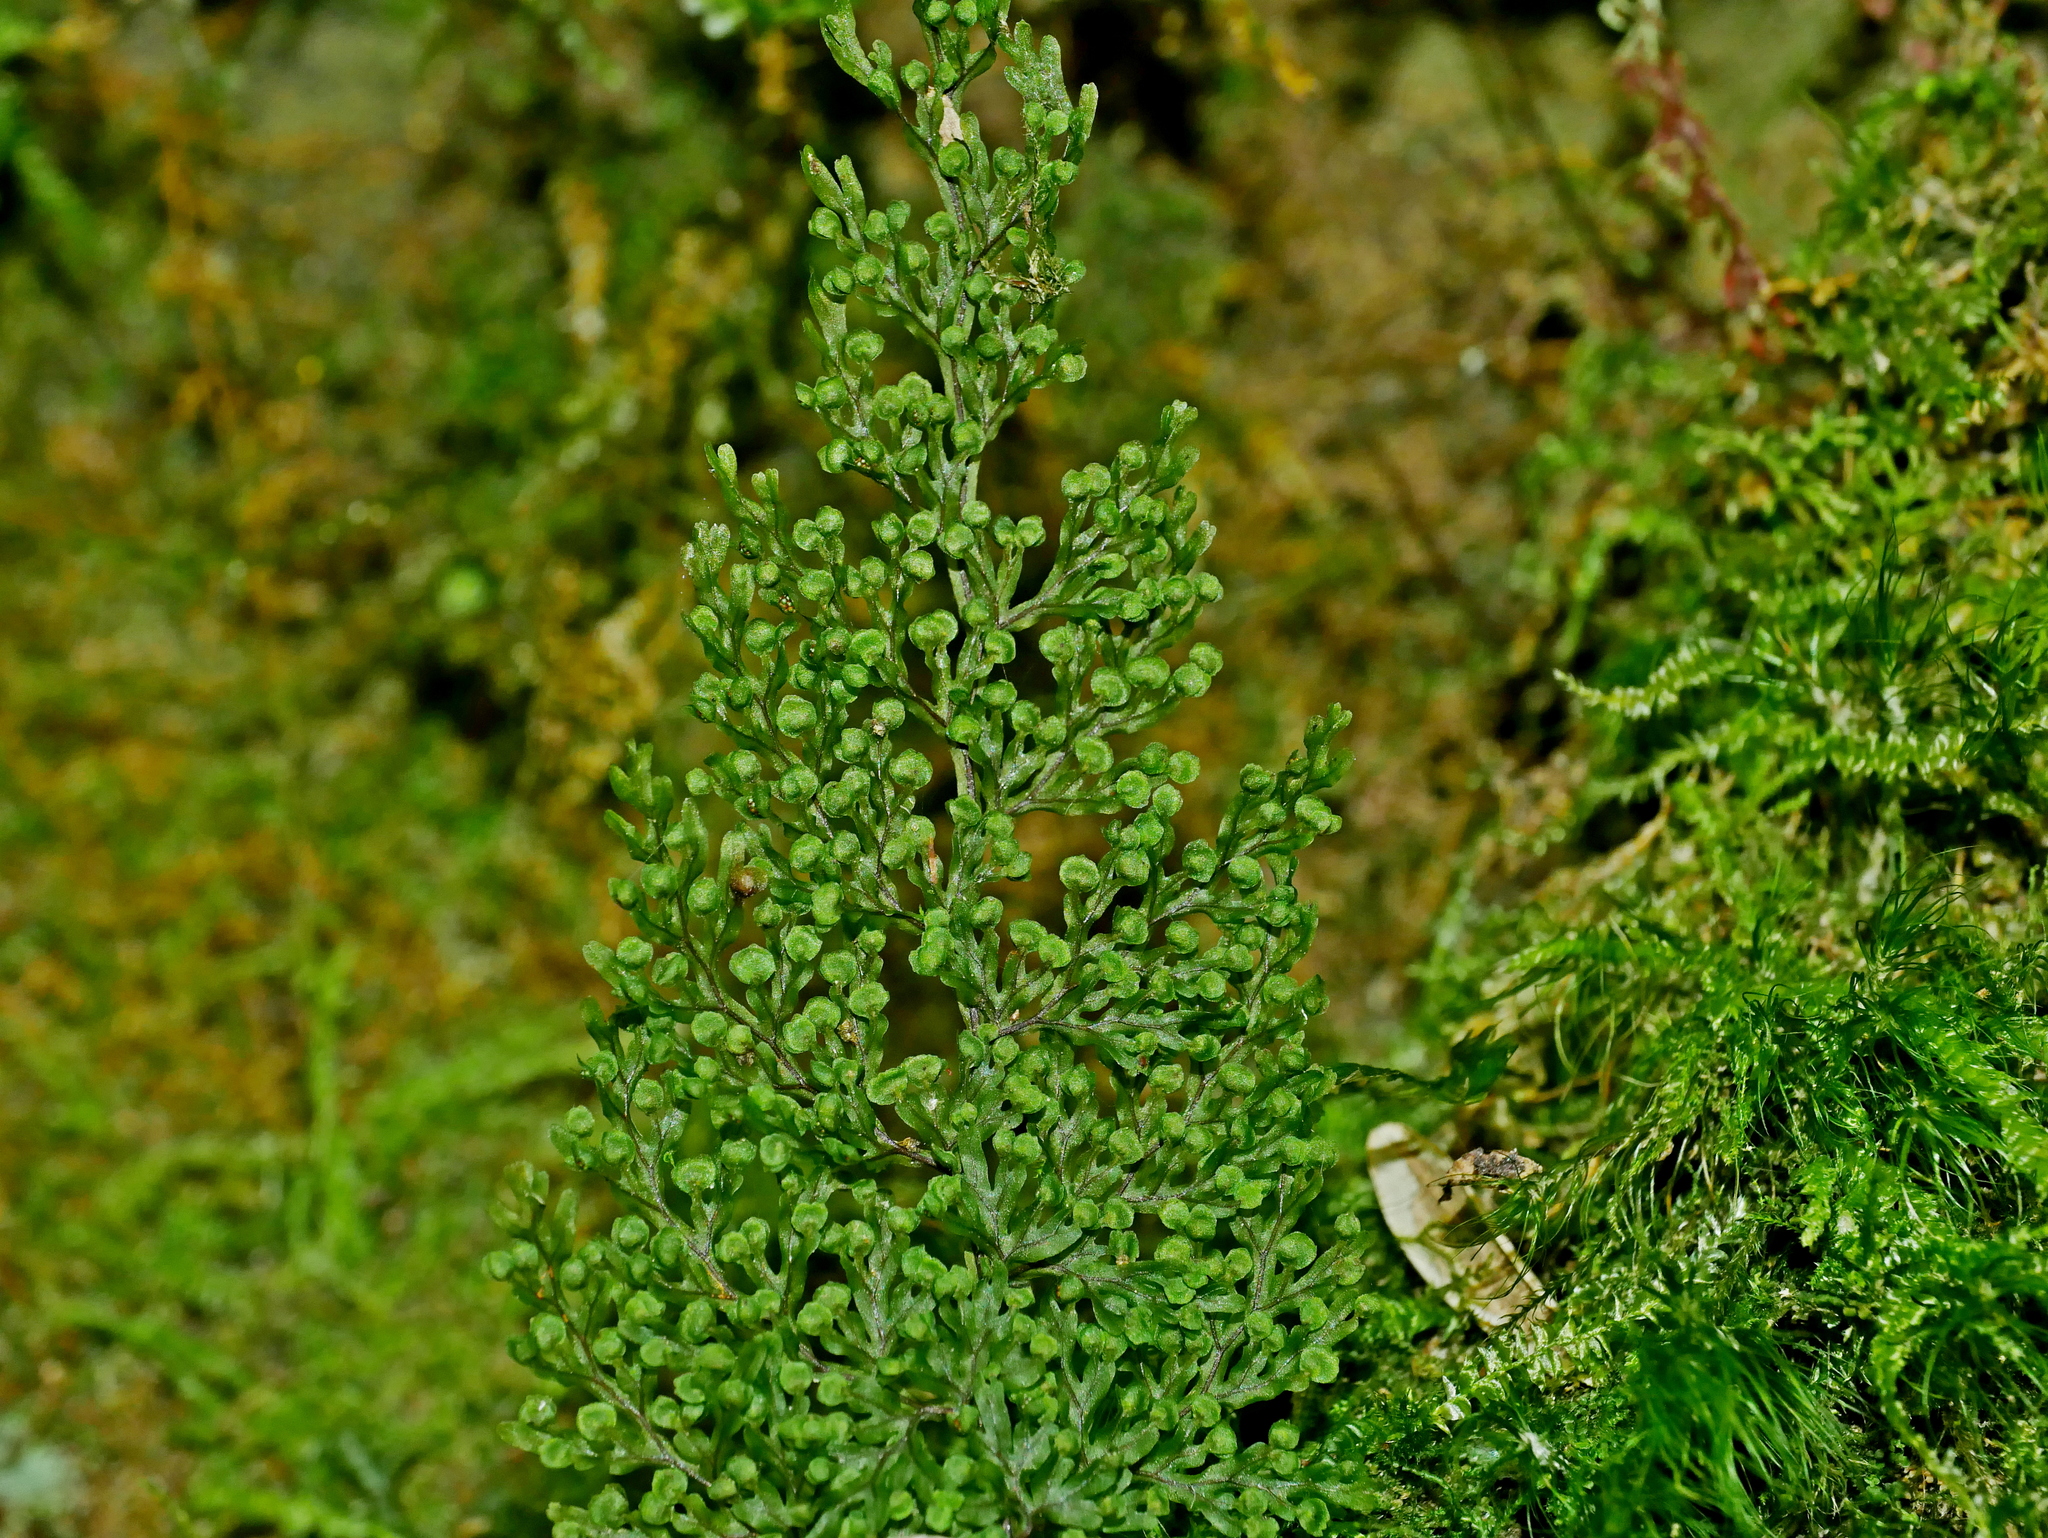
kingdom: Plantae
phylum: Tracheophyta
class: Polypodiopsida
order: Hymenophyllales
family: Hymenophyllaceae
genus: Hymenophyllum
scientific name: Hymenophyllum punctisorum
